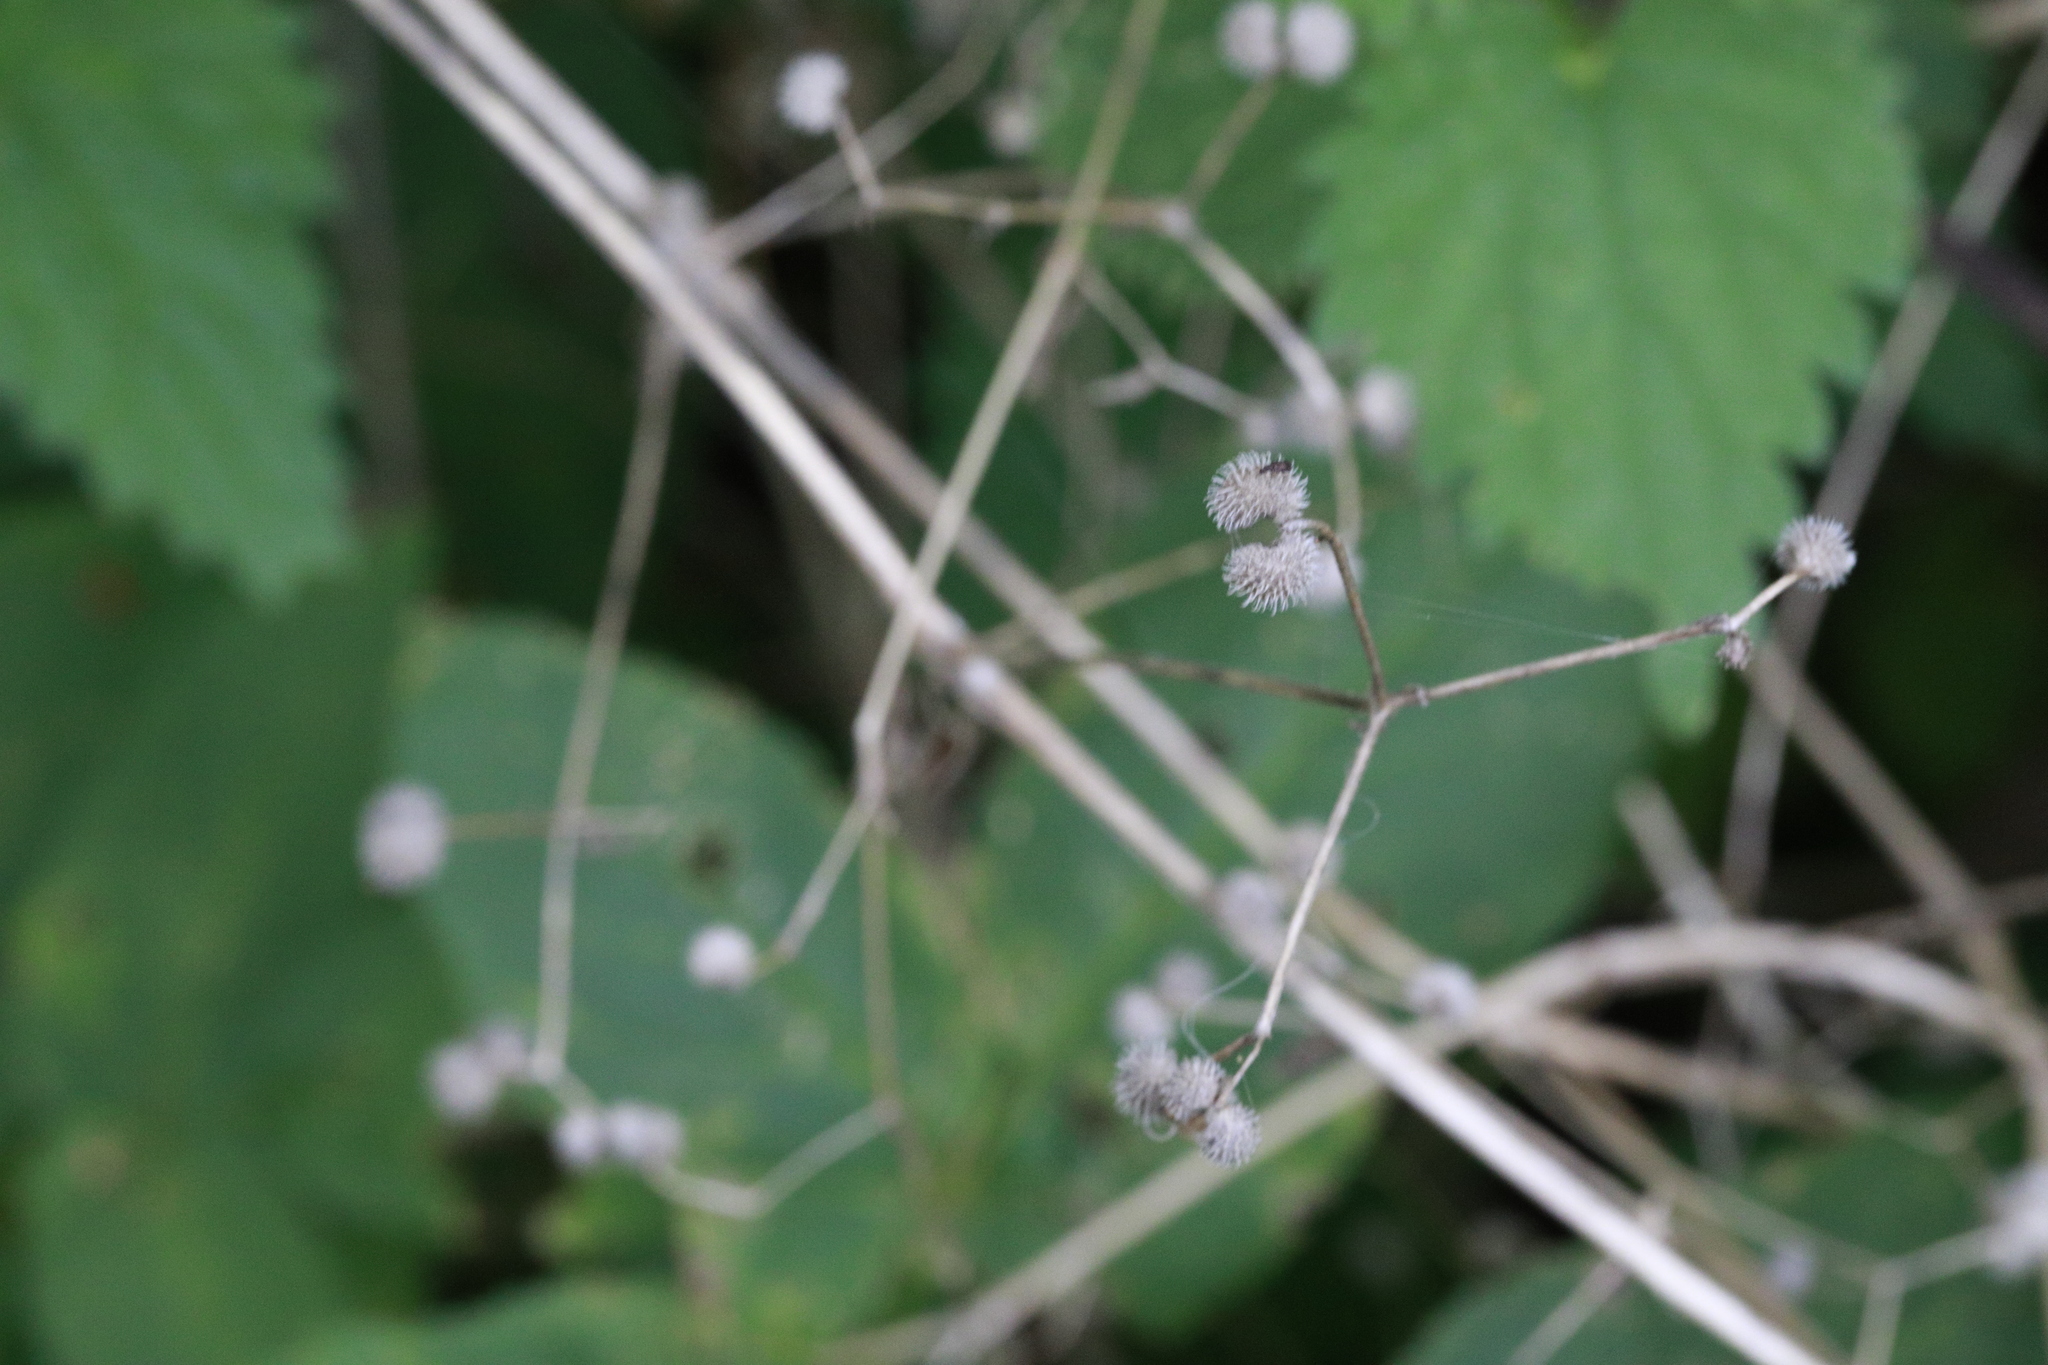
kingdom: Plantae
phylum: Tracheophyta
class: Magnoliopsida
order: Gentianales
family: Rubiaceae
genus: Galium
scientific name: Galium aparine
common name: Cleavers
